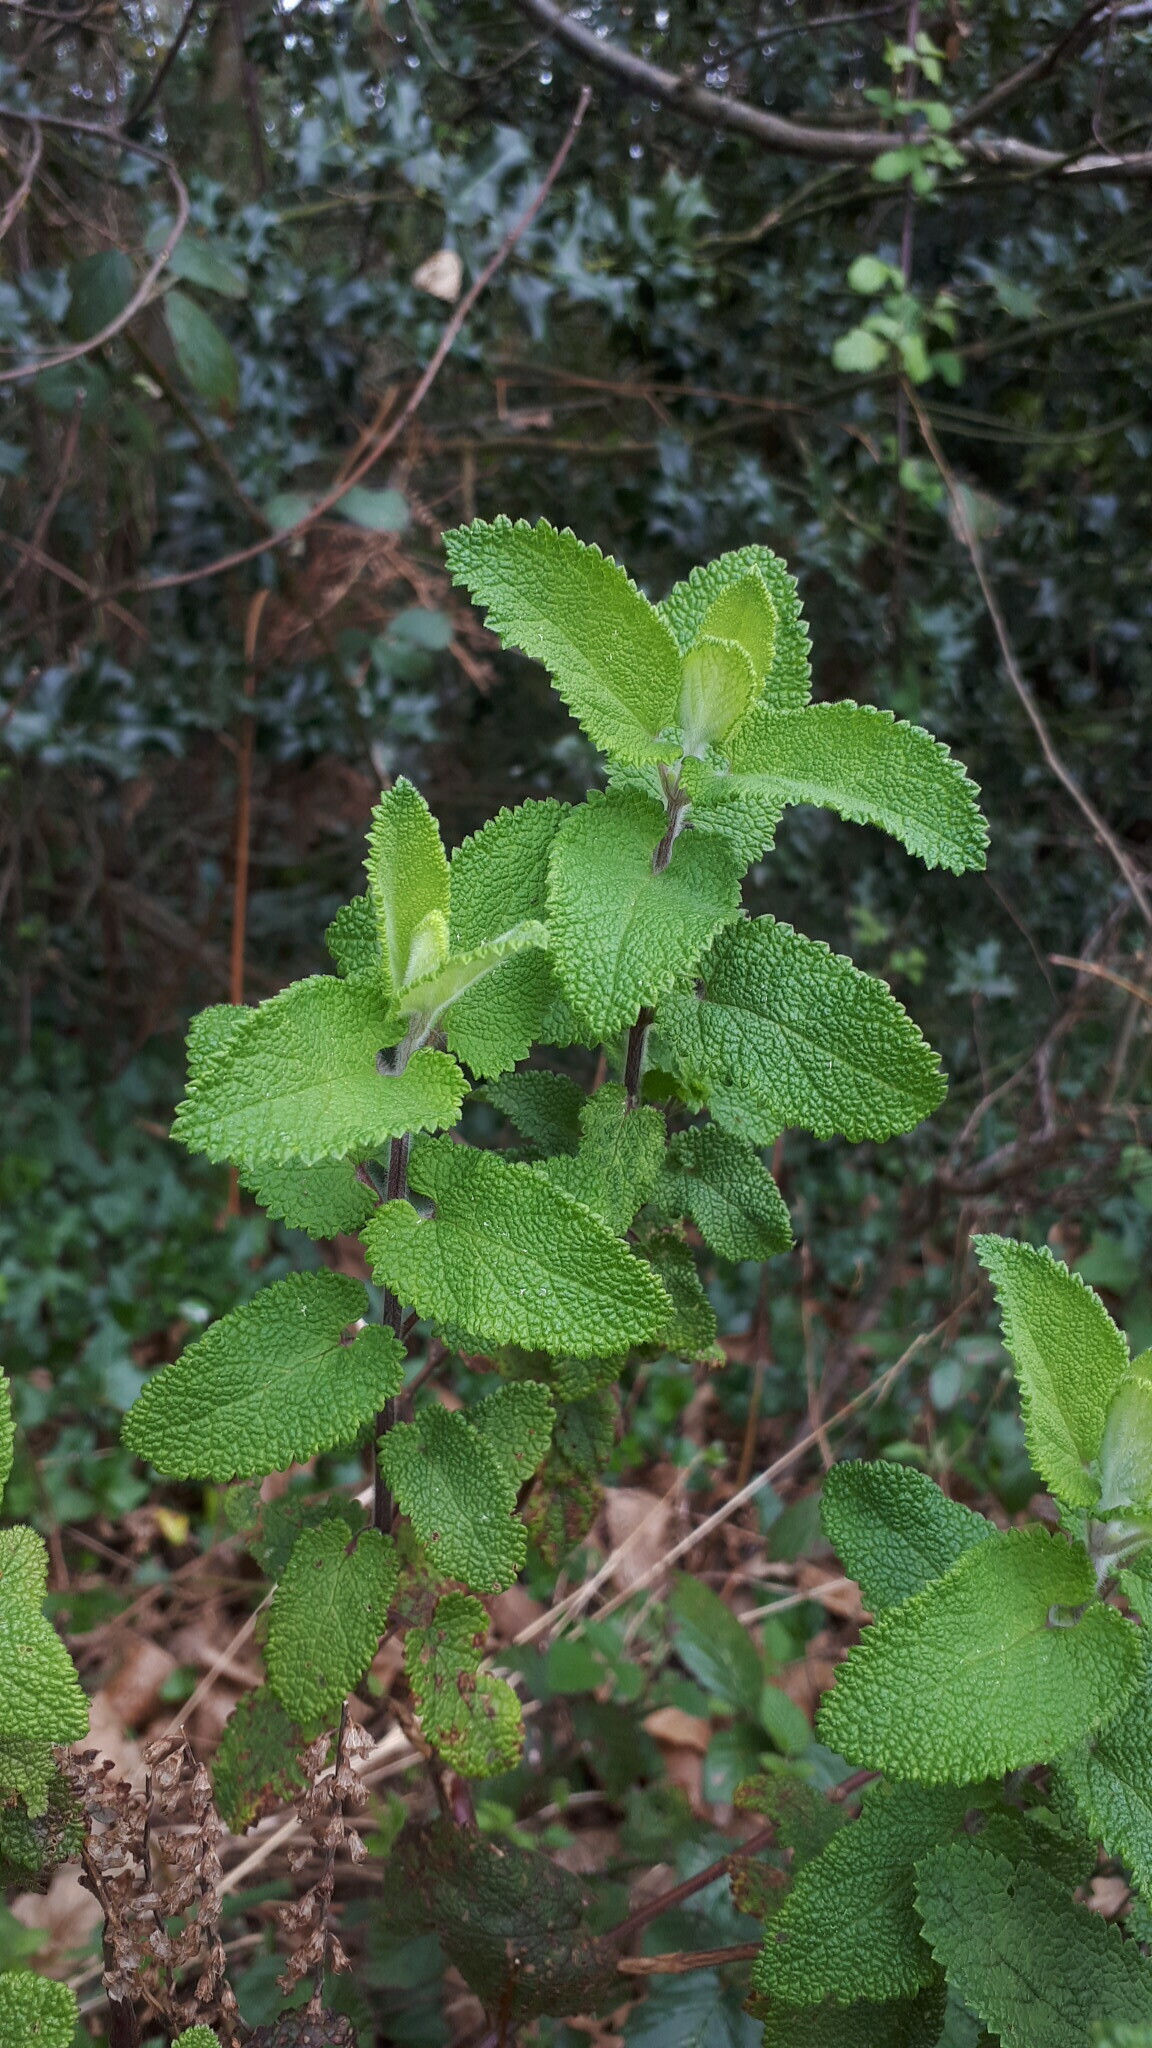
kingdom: Plantae
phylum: Tracheophyta
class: Magnoliopsida
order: Lamiales
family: Lamiaceae
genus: Teucrium
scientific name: Teucrium scorodonia
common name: Woodland germander
